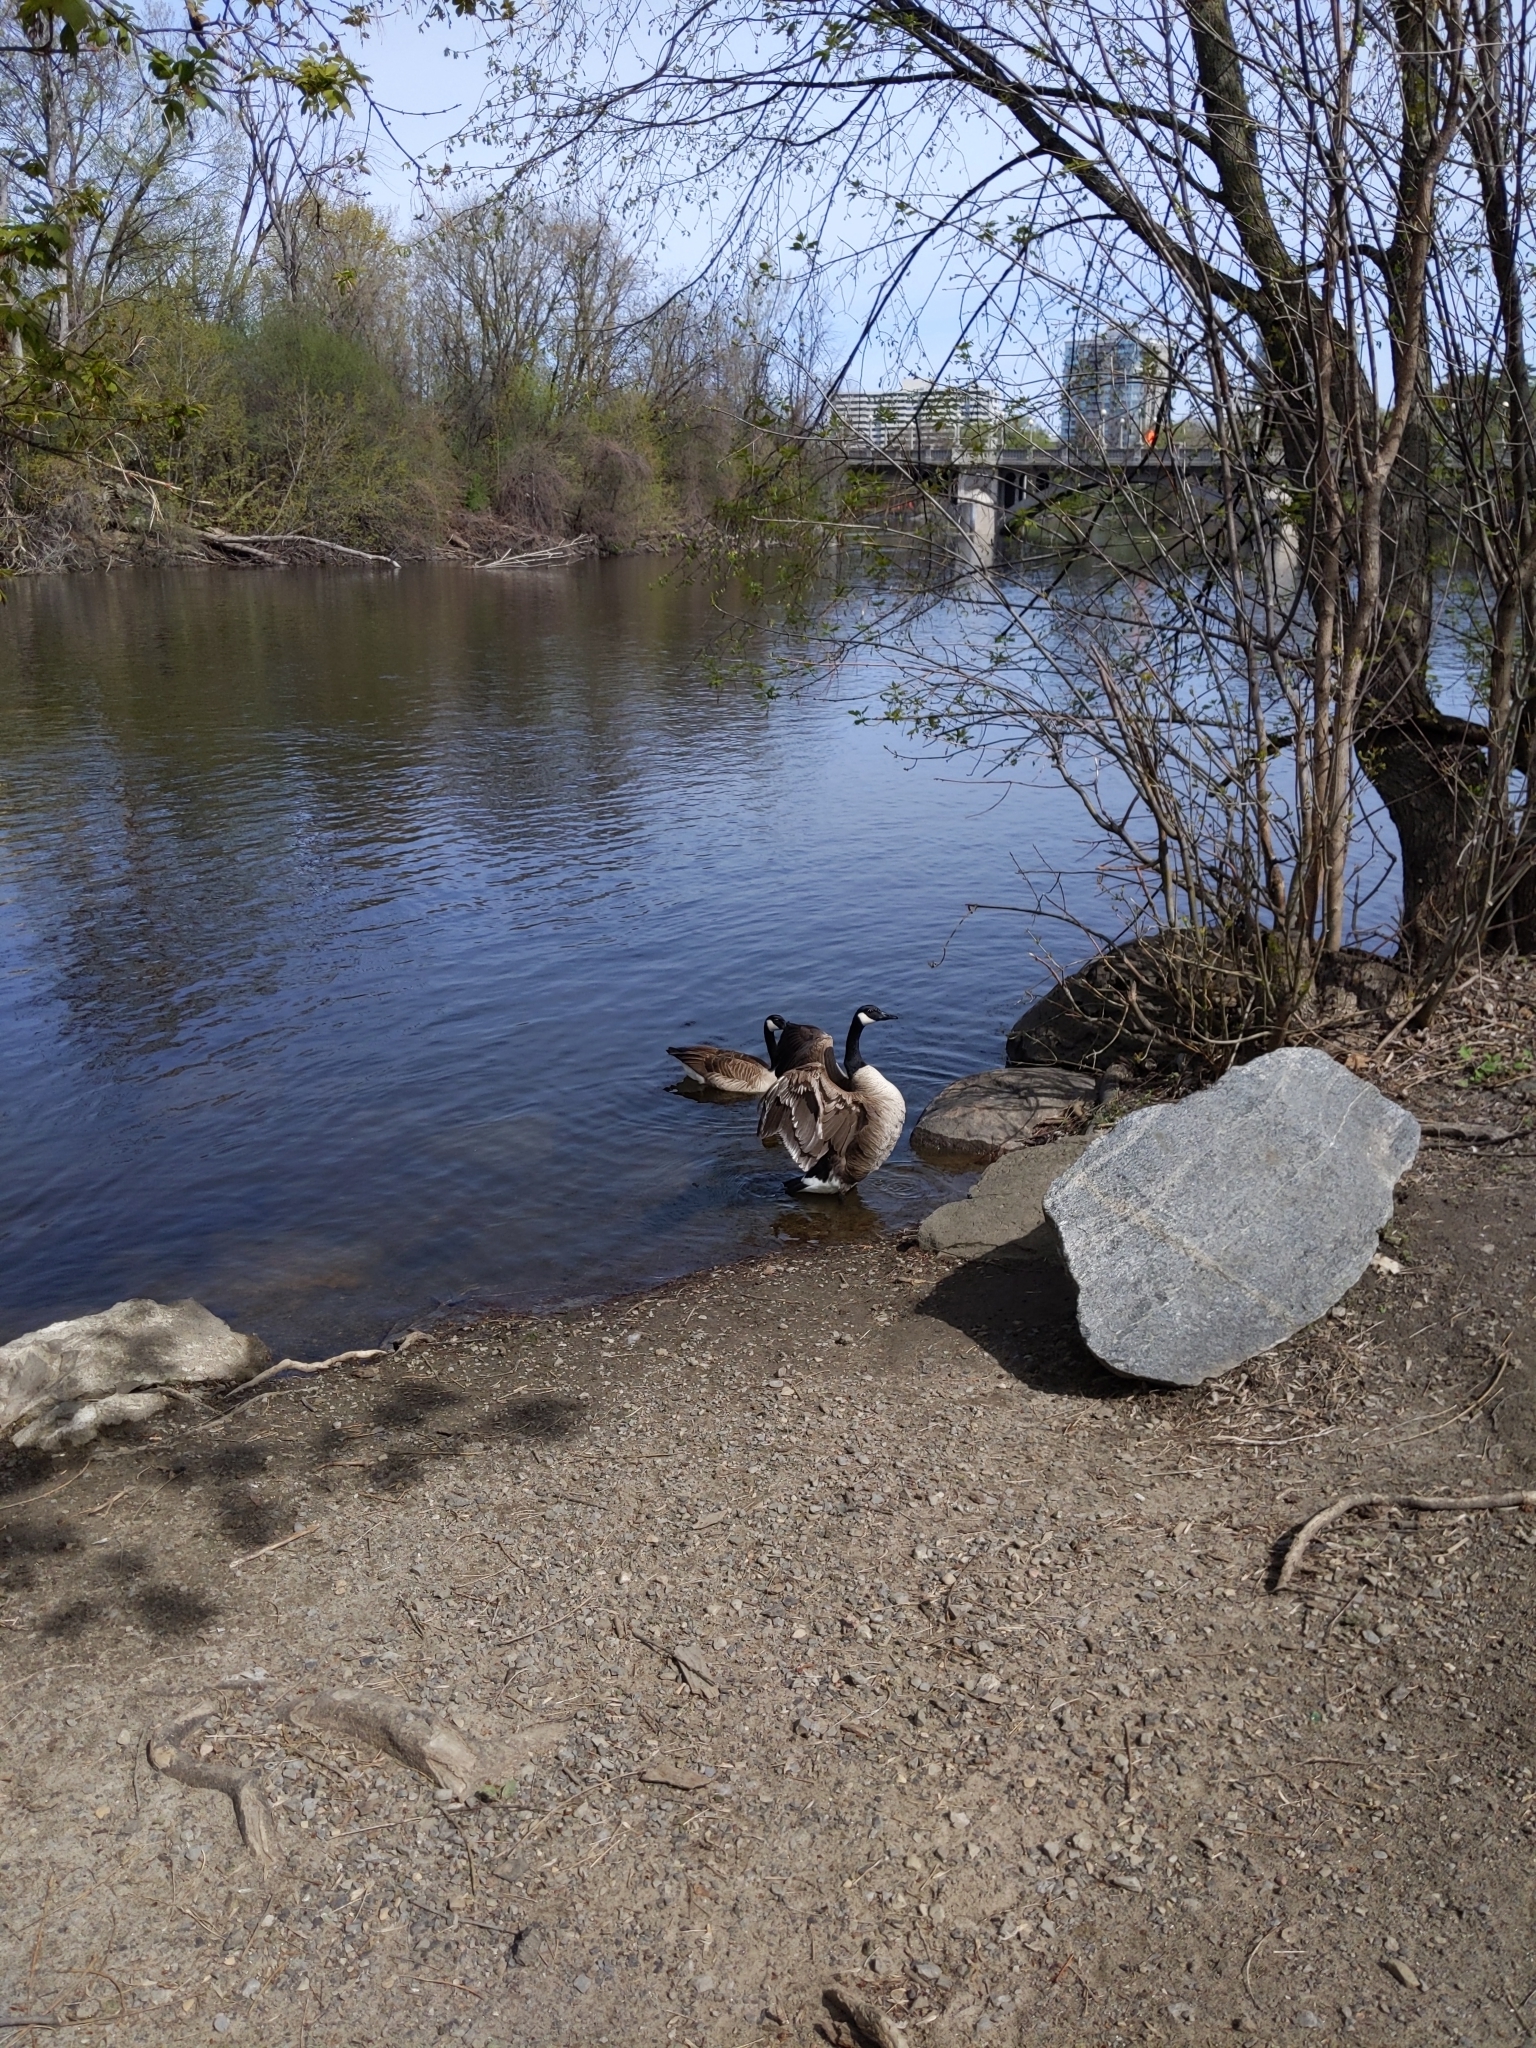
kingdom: Animalia
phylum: Chordata
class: Aves
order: Anseriformes
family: Anatidae
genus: Branta
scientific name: Branta canadensis
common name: Canada goose
